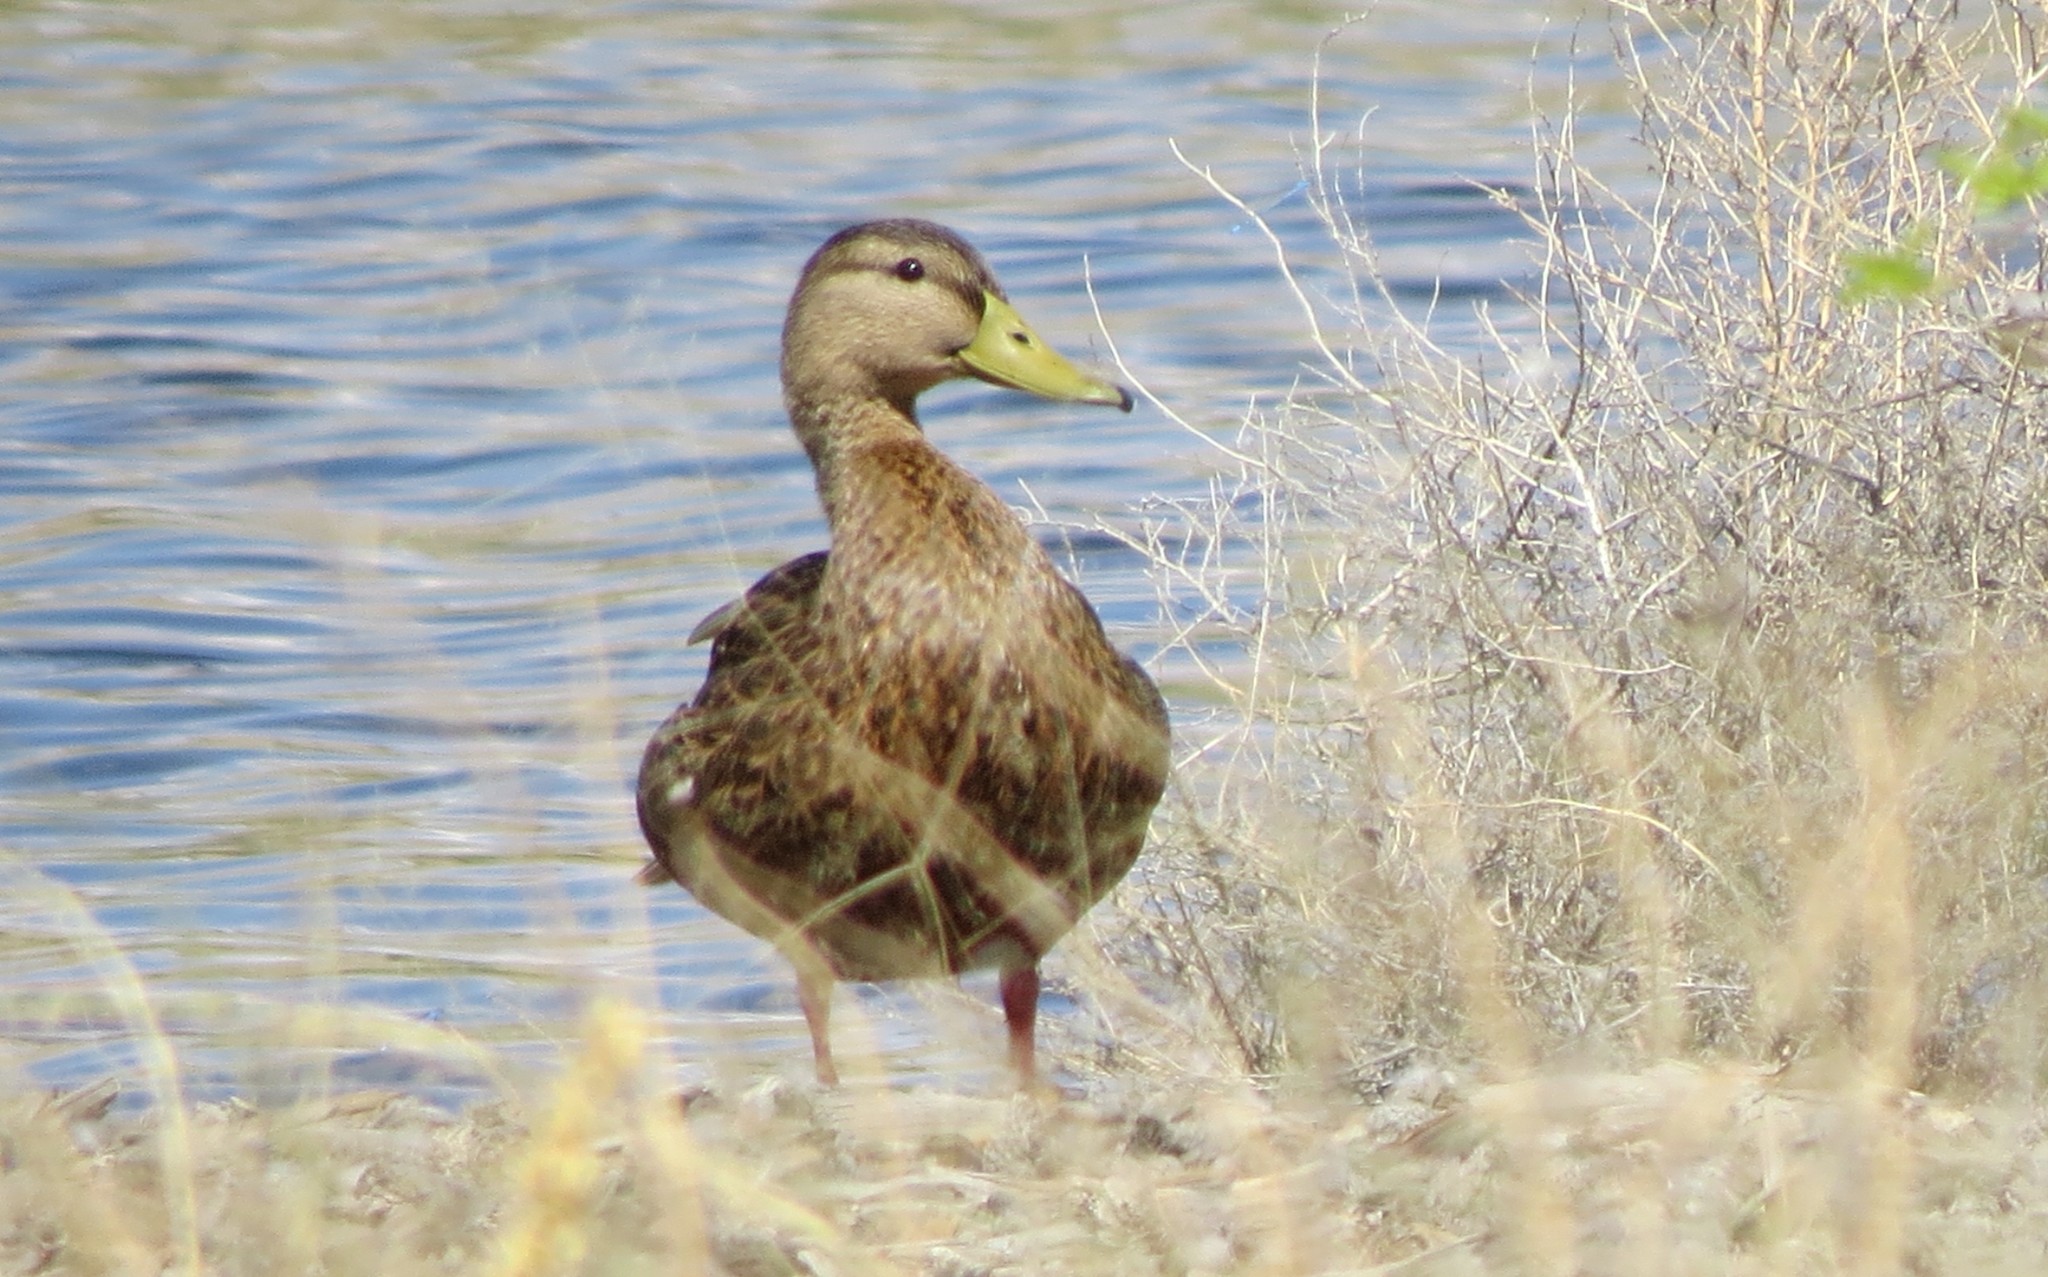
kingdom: Animalia
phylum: Chordata
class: Aves
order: Anseriformes
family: Anatidae
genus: Anas
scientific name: Anas diazi
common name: Mexican duck
